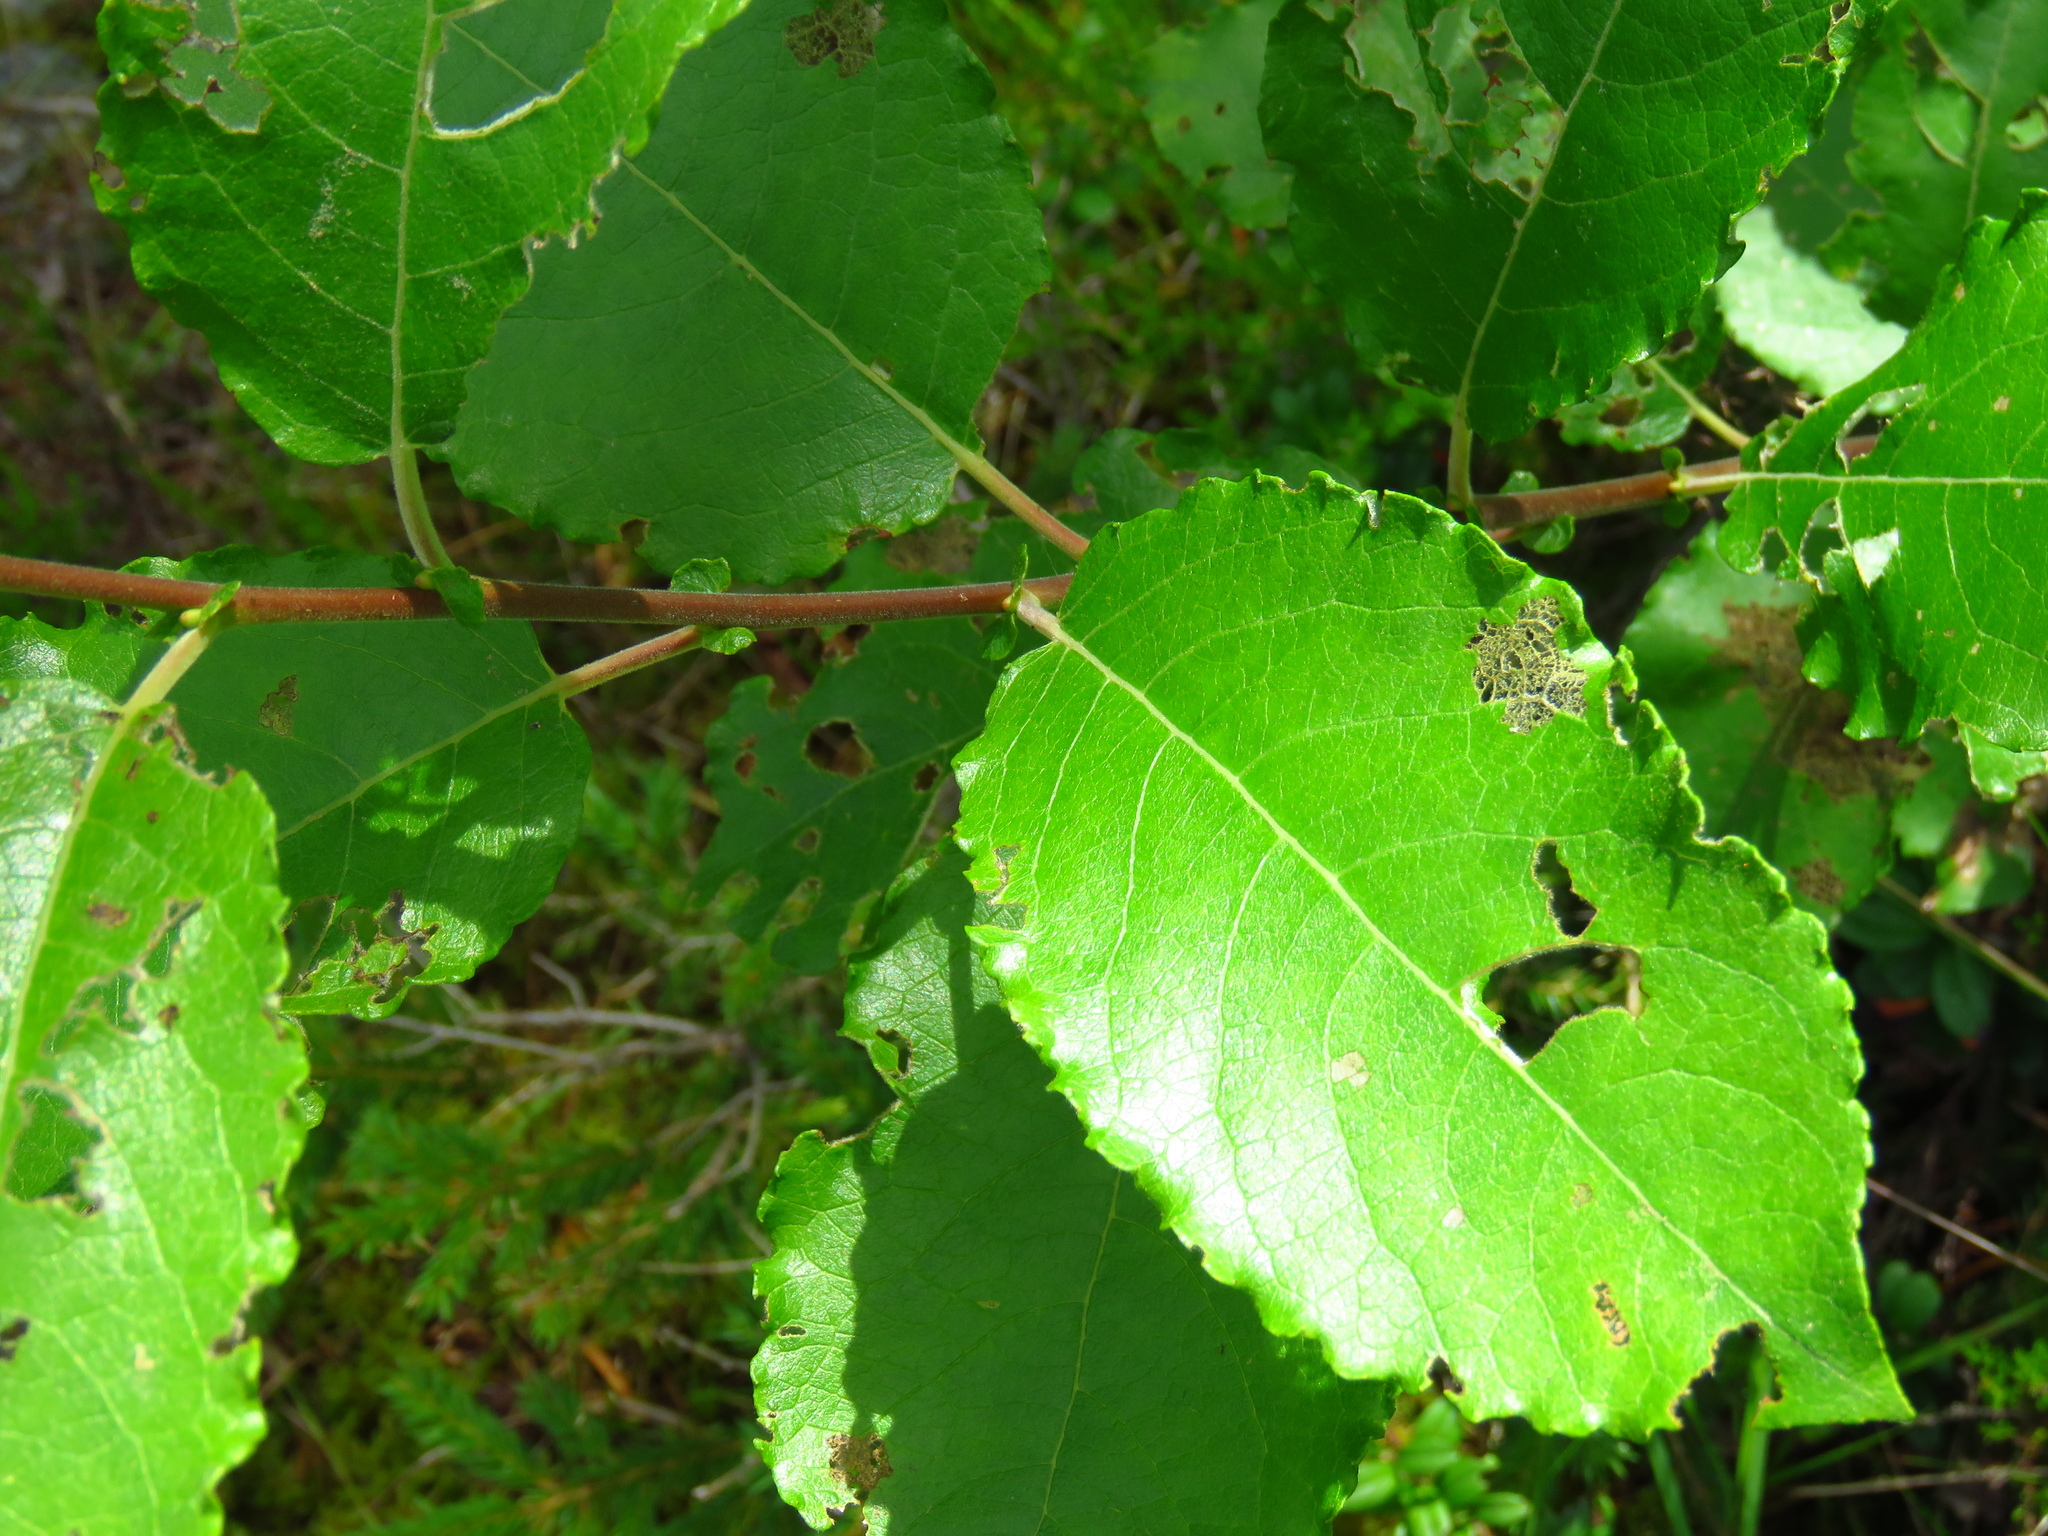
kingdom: Plantae
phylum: Tracheophyta
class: Magnoliopsida
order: Malpighiales
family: Salicaceae
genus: Salix
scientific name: Salix caprea
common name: Goat willow
